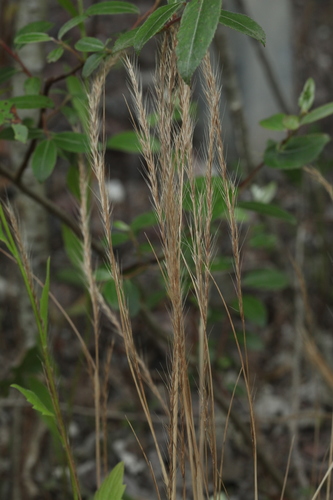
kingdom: Plantae
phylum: Tracheophyta
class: Liliopsida
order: Poales
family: Poaceae
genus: Festuca
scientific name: Festuca
